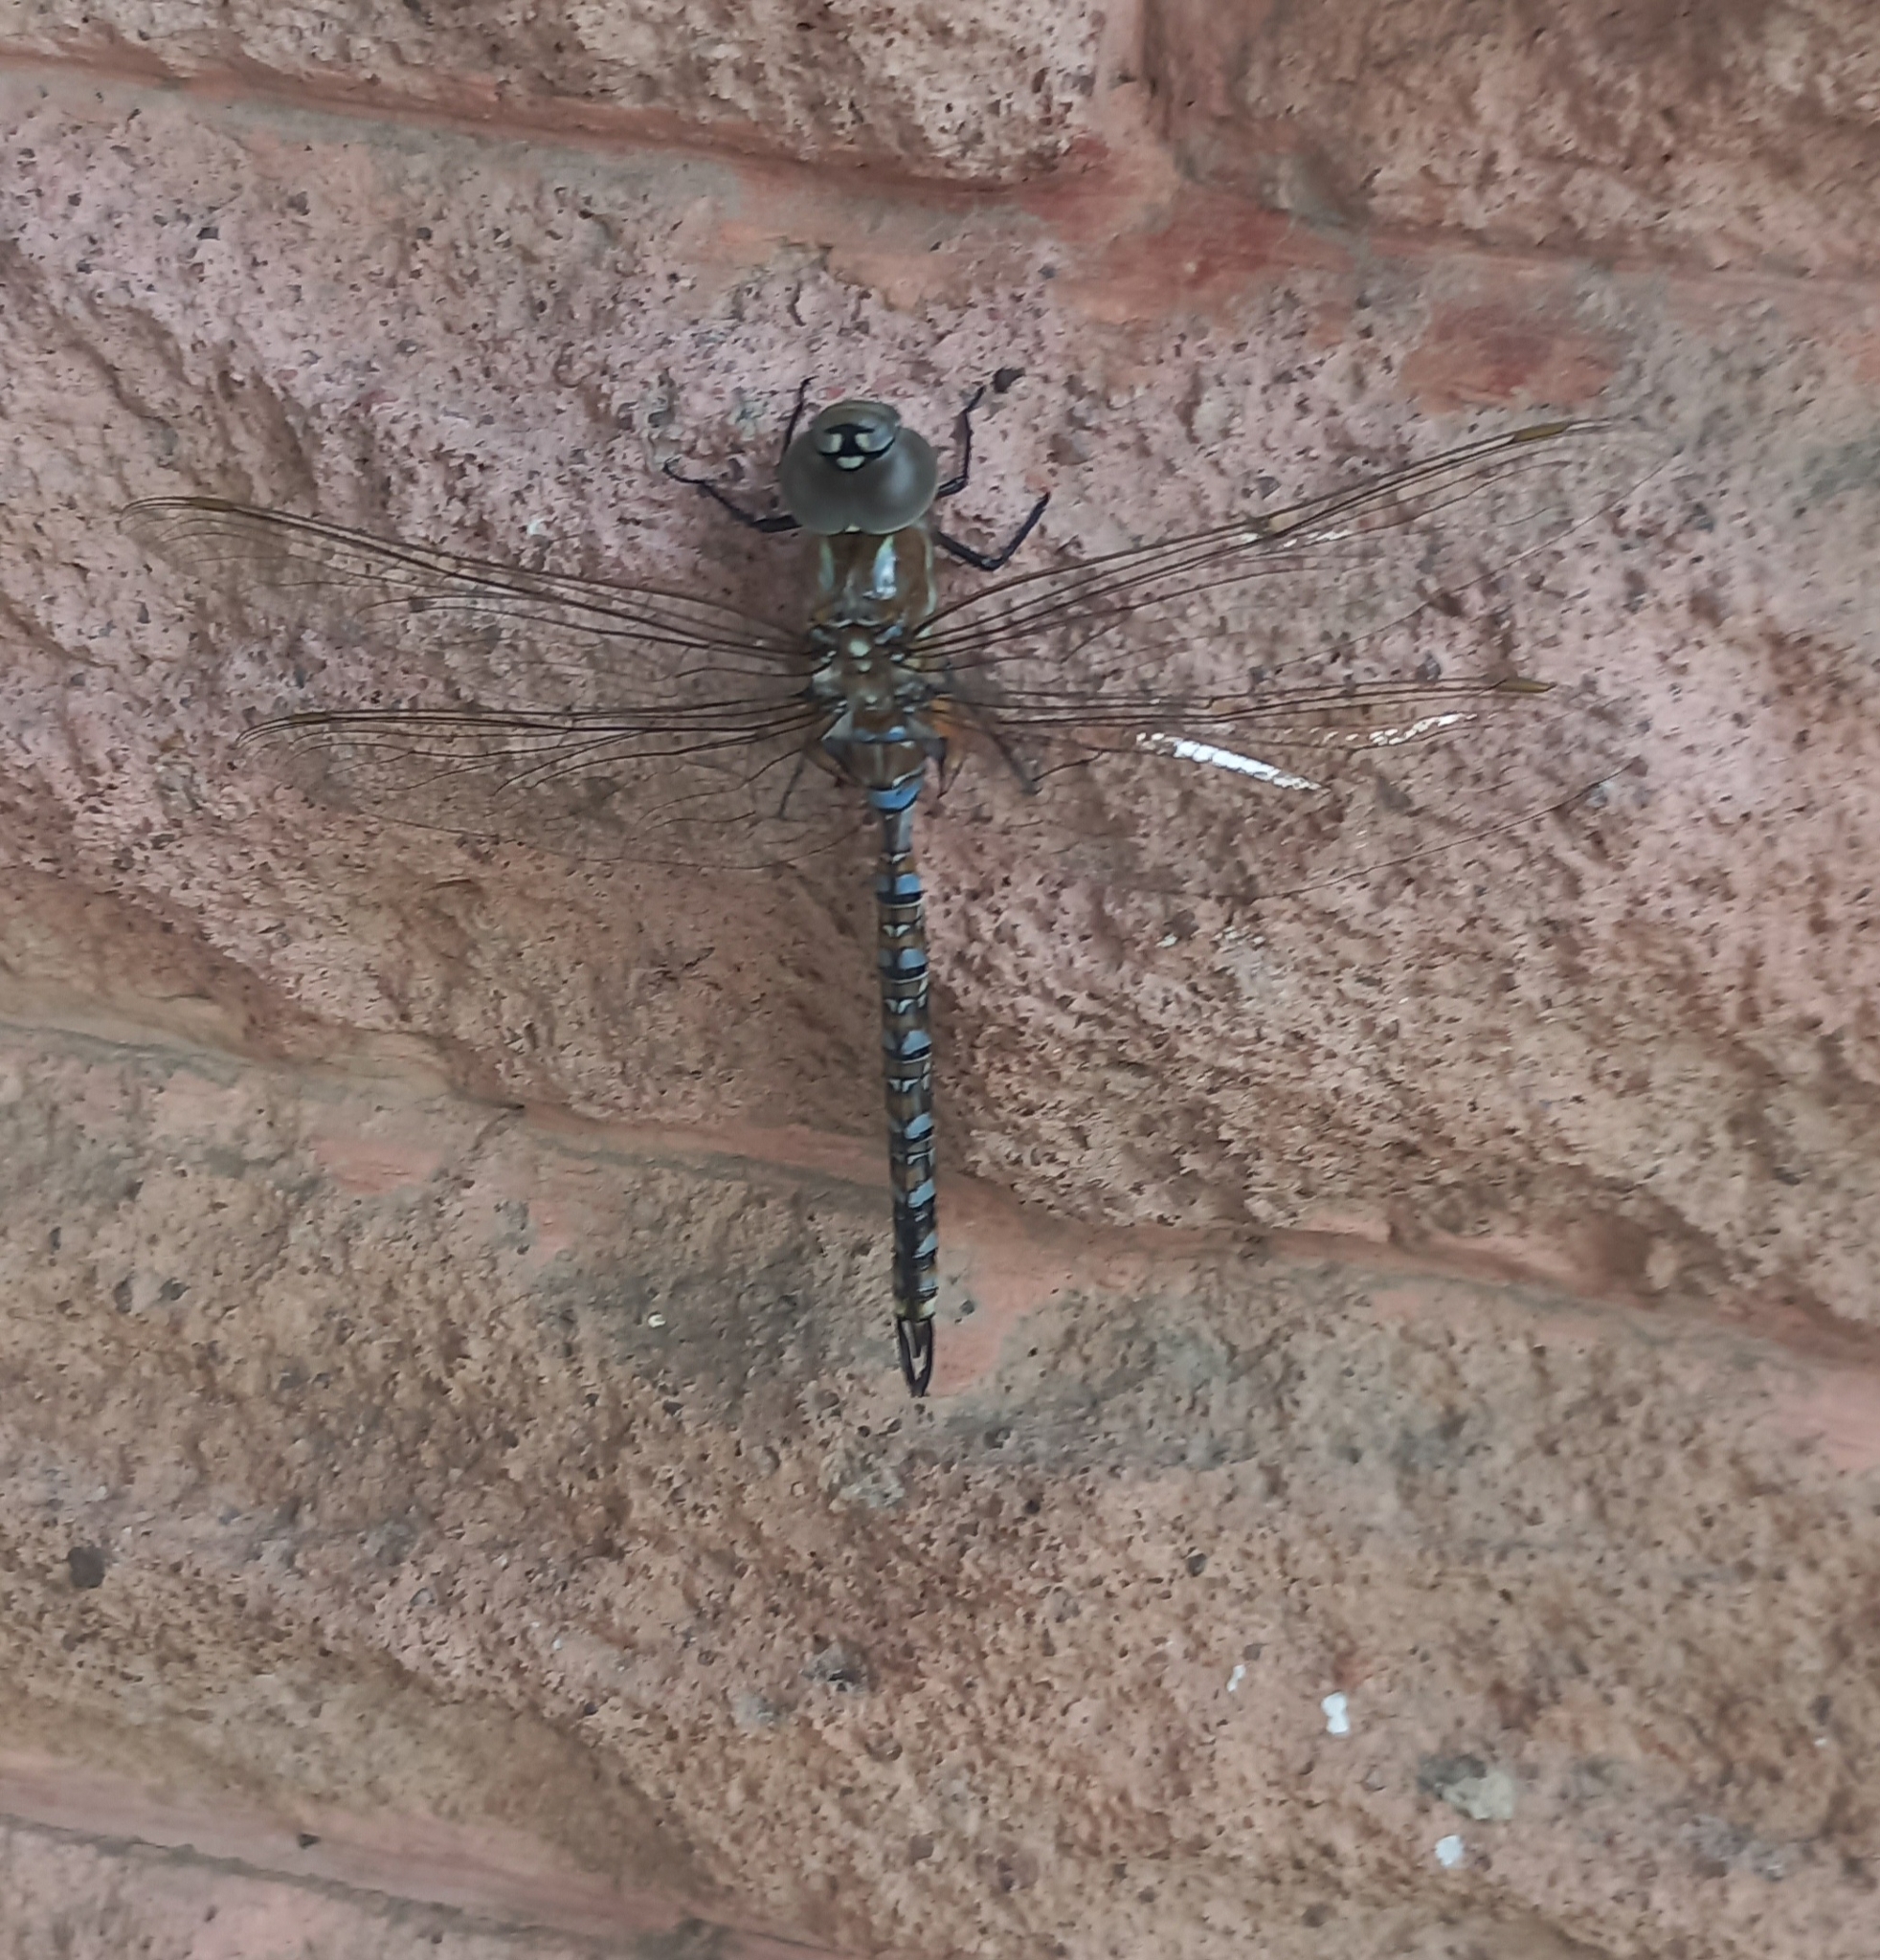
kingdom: Animalia
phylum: Arthropoda
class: Insecta
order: Odonata
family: Aeshnidae
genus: Rhionaeschna
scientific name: Rhionaeschna multicolor
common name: Blue-eyed darner
